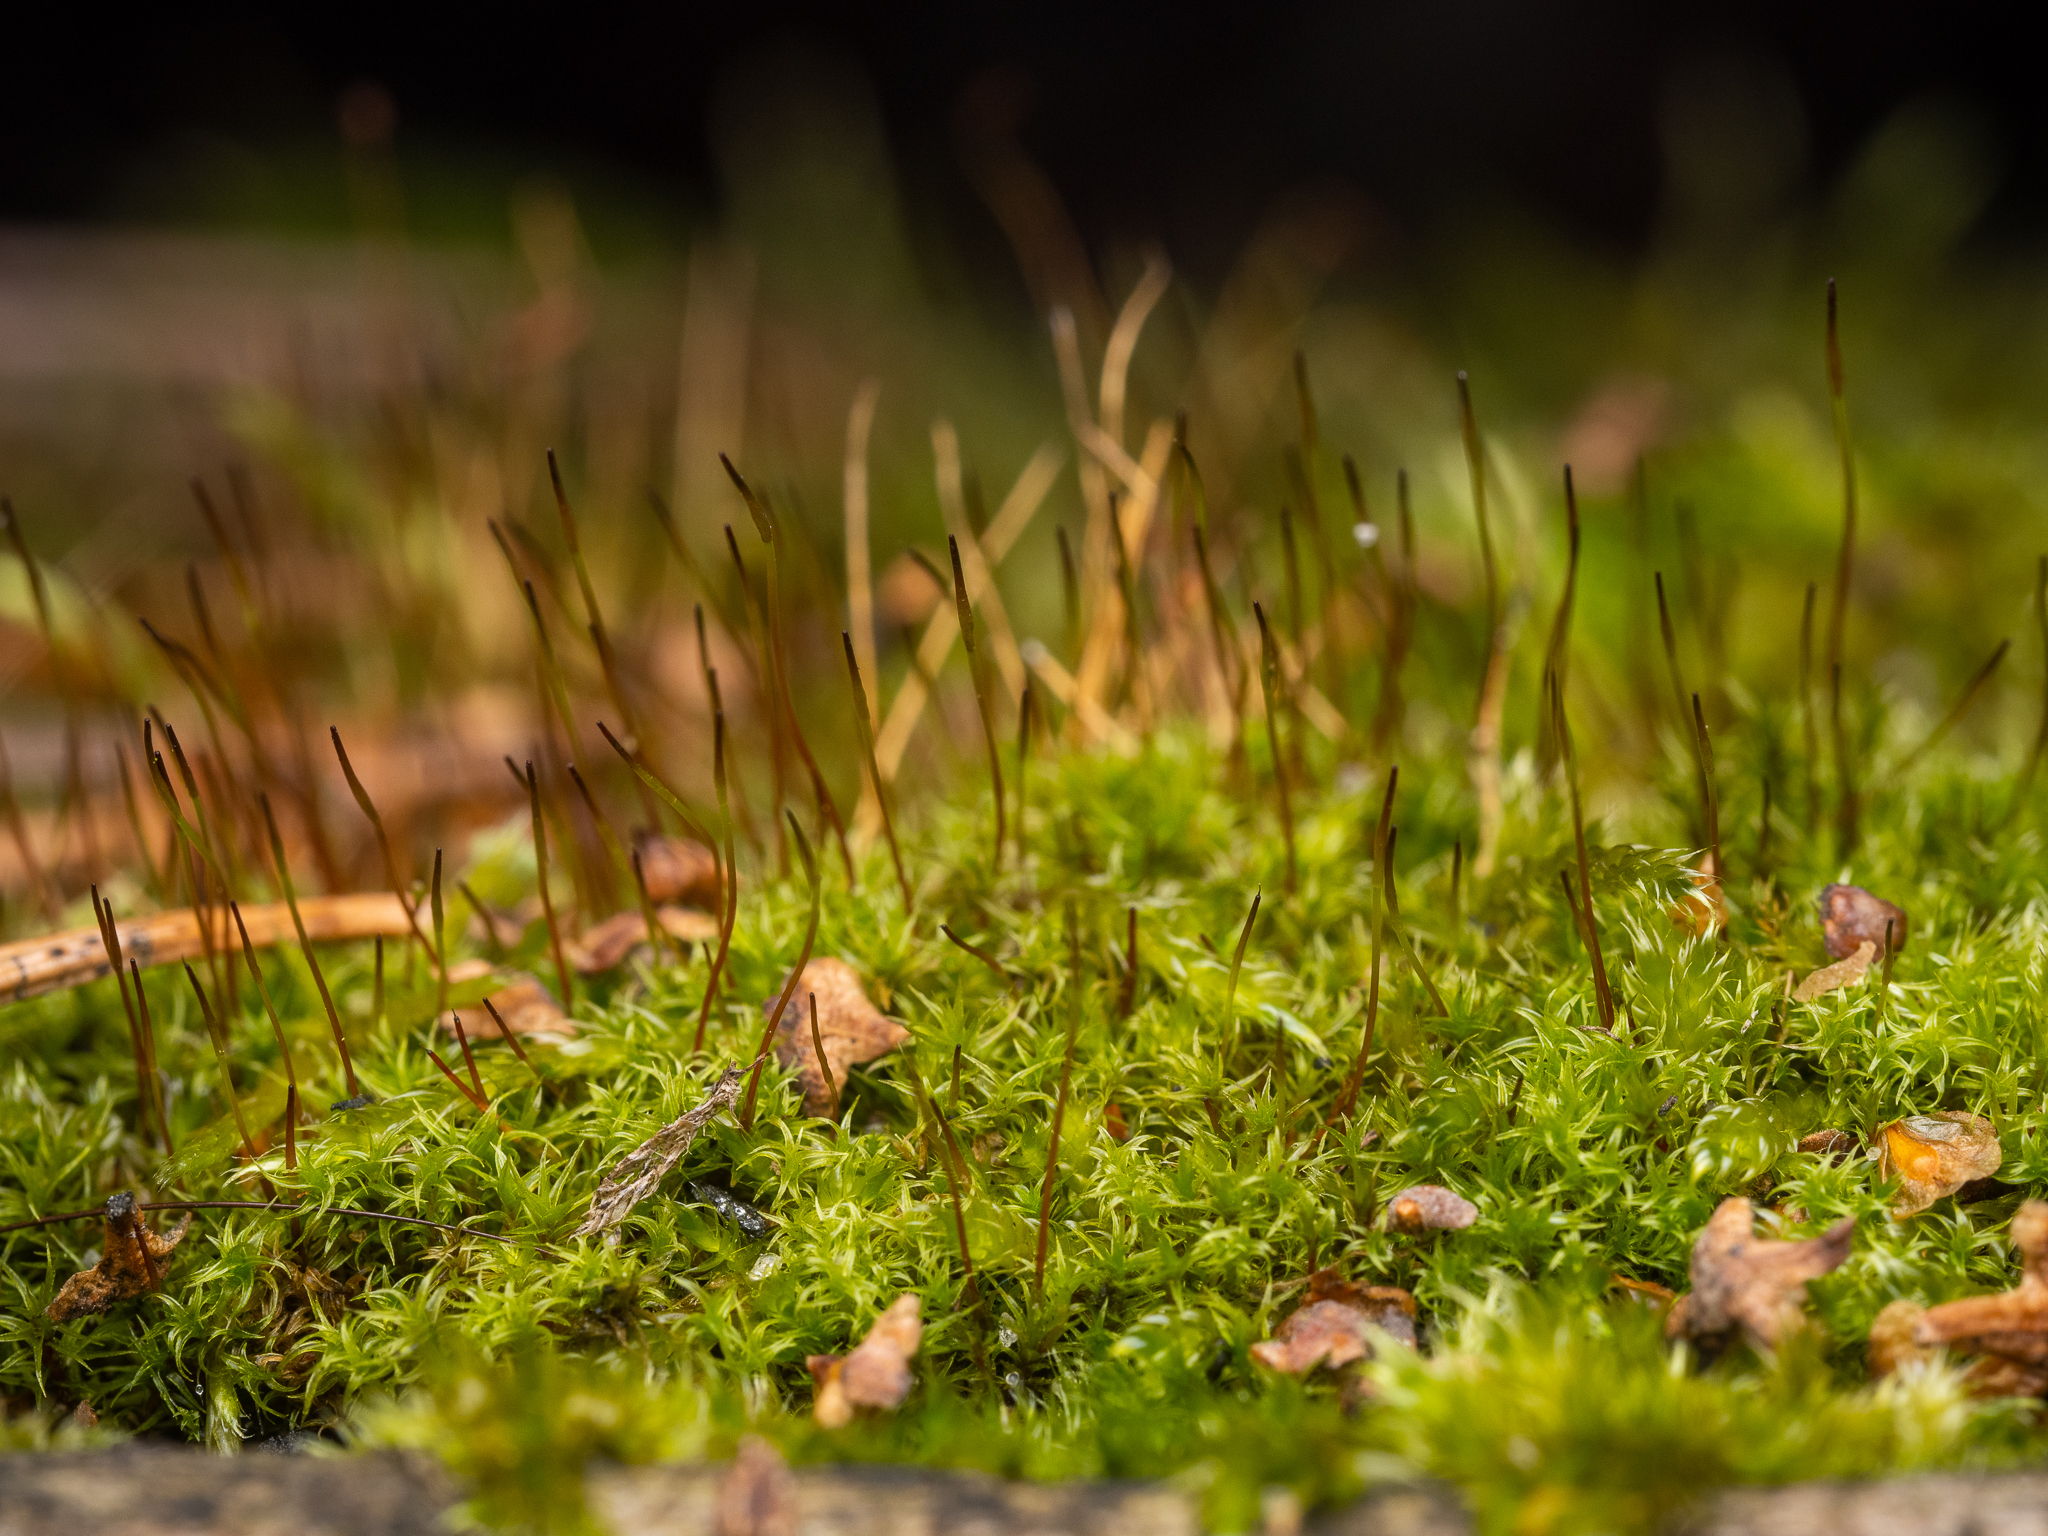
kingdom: Plantae
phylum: Bryophyta
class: Bryopsida
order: Dicranales
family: Ditrichaceae
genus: Ceratodon
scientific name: Ceratodon purpureus
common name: Redshank
